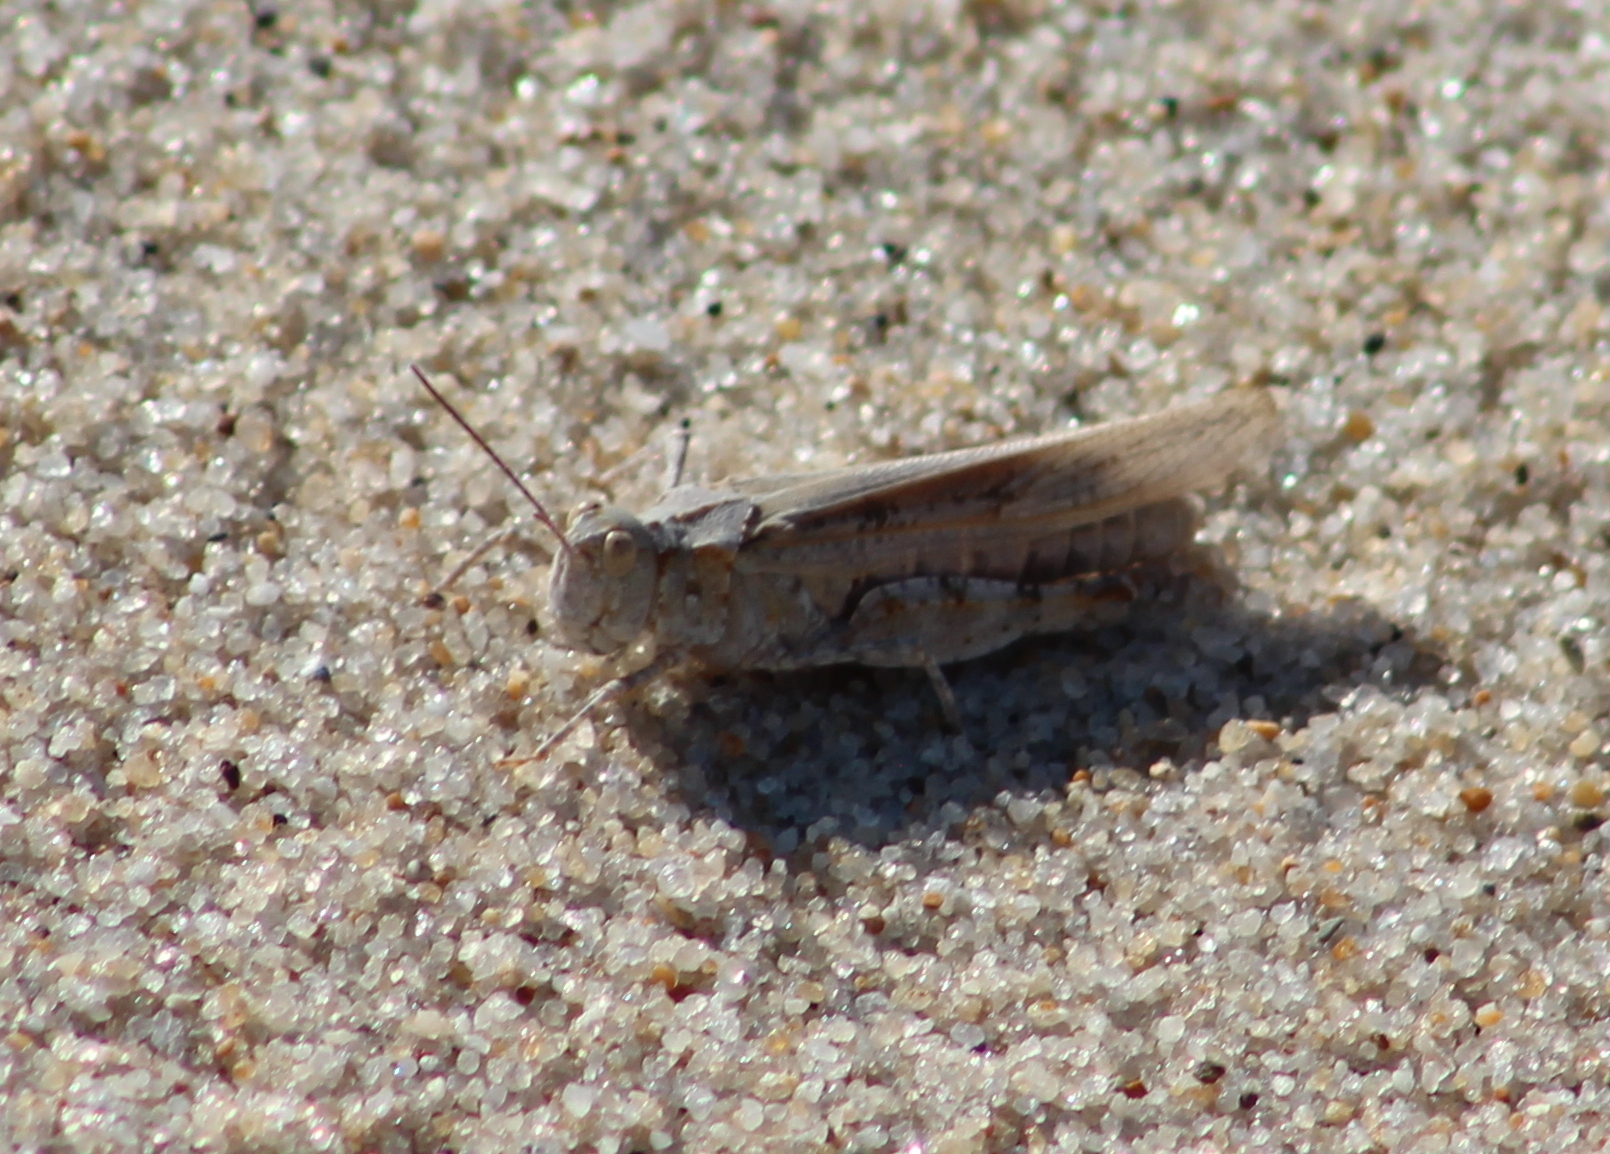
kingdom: Animalia
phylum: Arthropoda
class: Insecta
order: Orthoptera
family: Acrididae
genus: Trimerotropis
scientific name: Trimerotropis maritima
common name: Seaside locust
